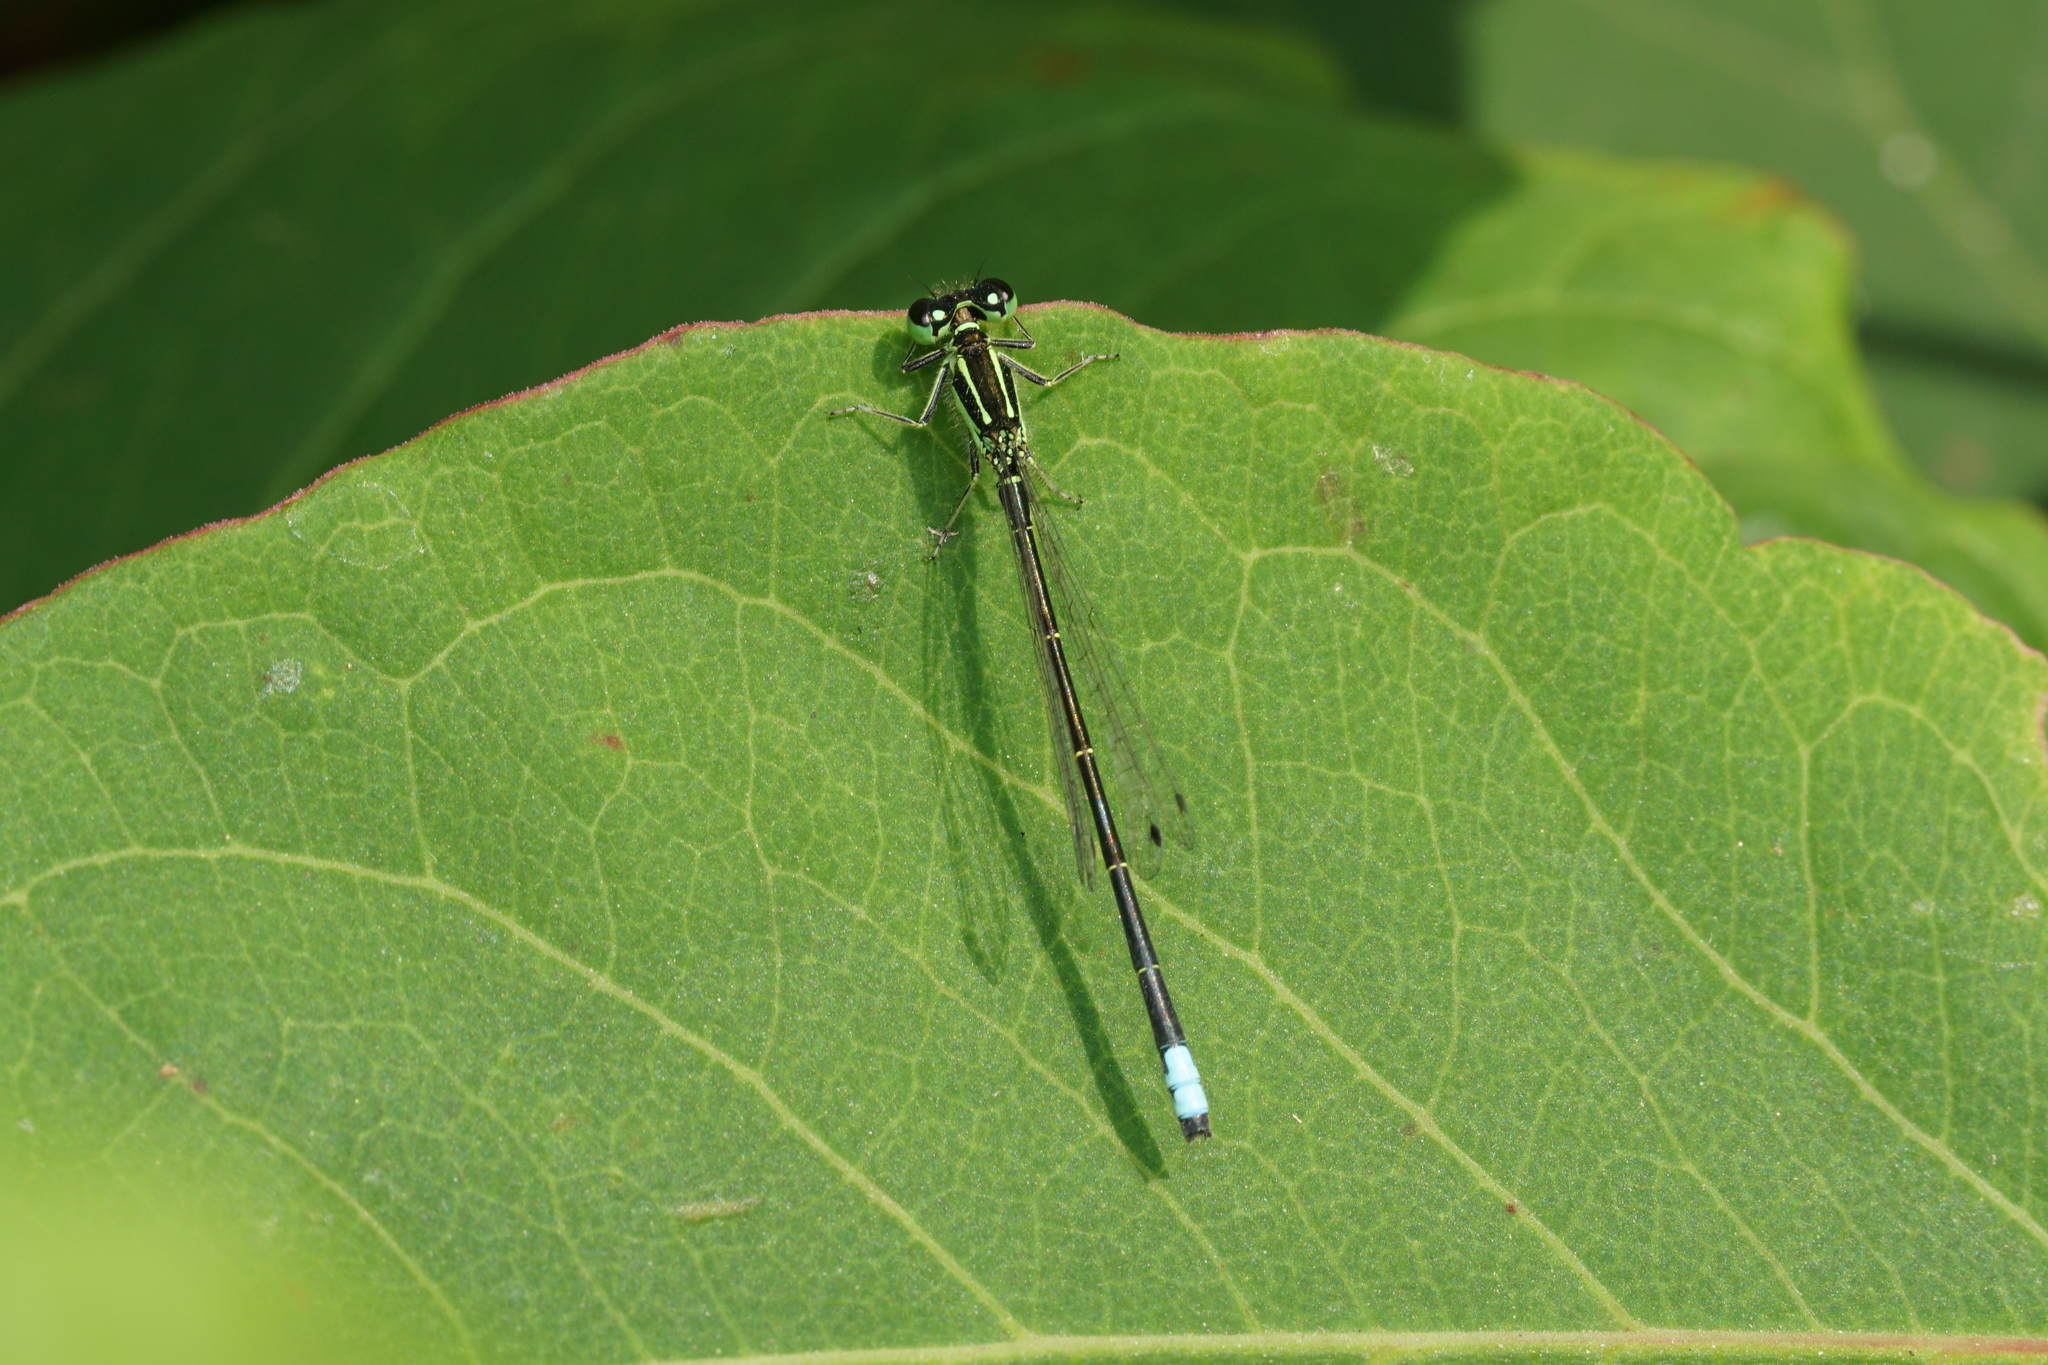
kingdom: Animalia
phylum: Arthropoda
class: Insecta
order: Odonata
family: Coenagrionidae
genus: Ischnura
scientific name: Ischnura verticalis
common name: Eastern forktail
